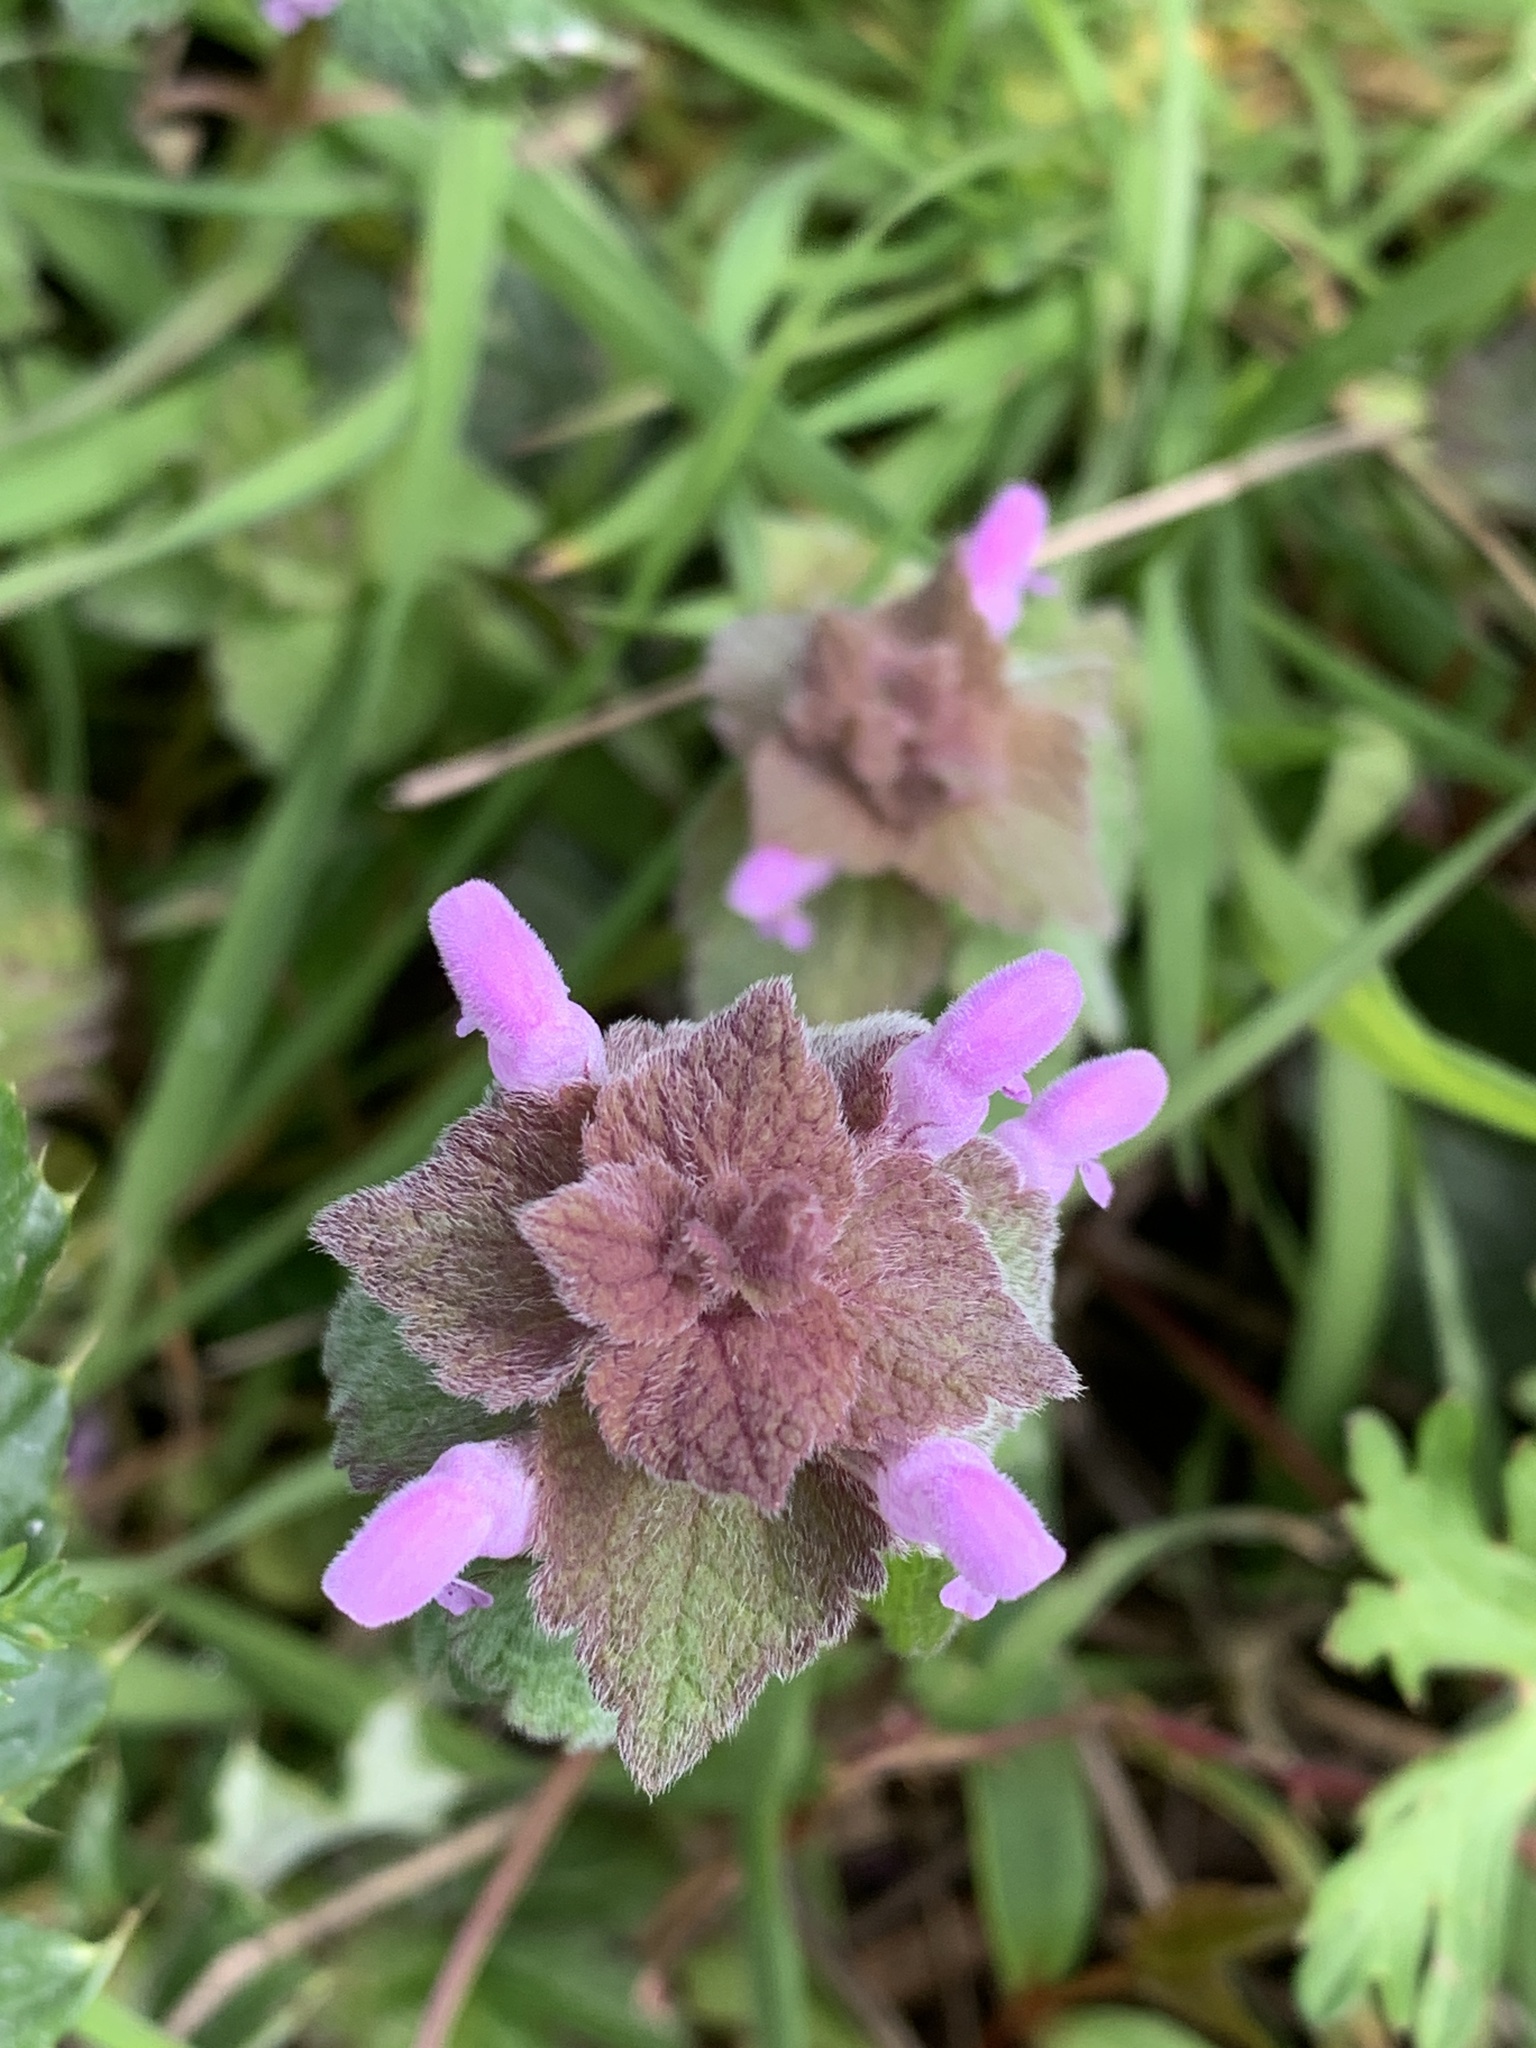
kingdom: Plantae
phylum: Tracheophyta
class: Magnoliopsida
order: Lamiales
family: Lamiaceae
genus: Lamium
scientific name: Lamium purpureum
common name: Red dead-nettle
